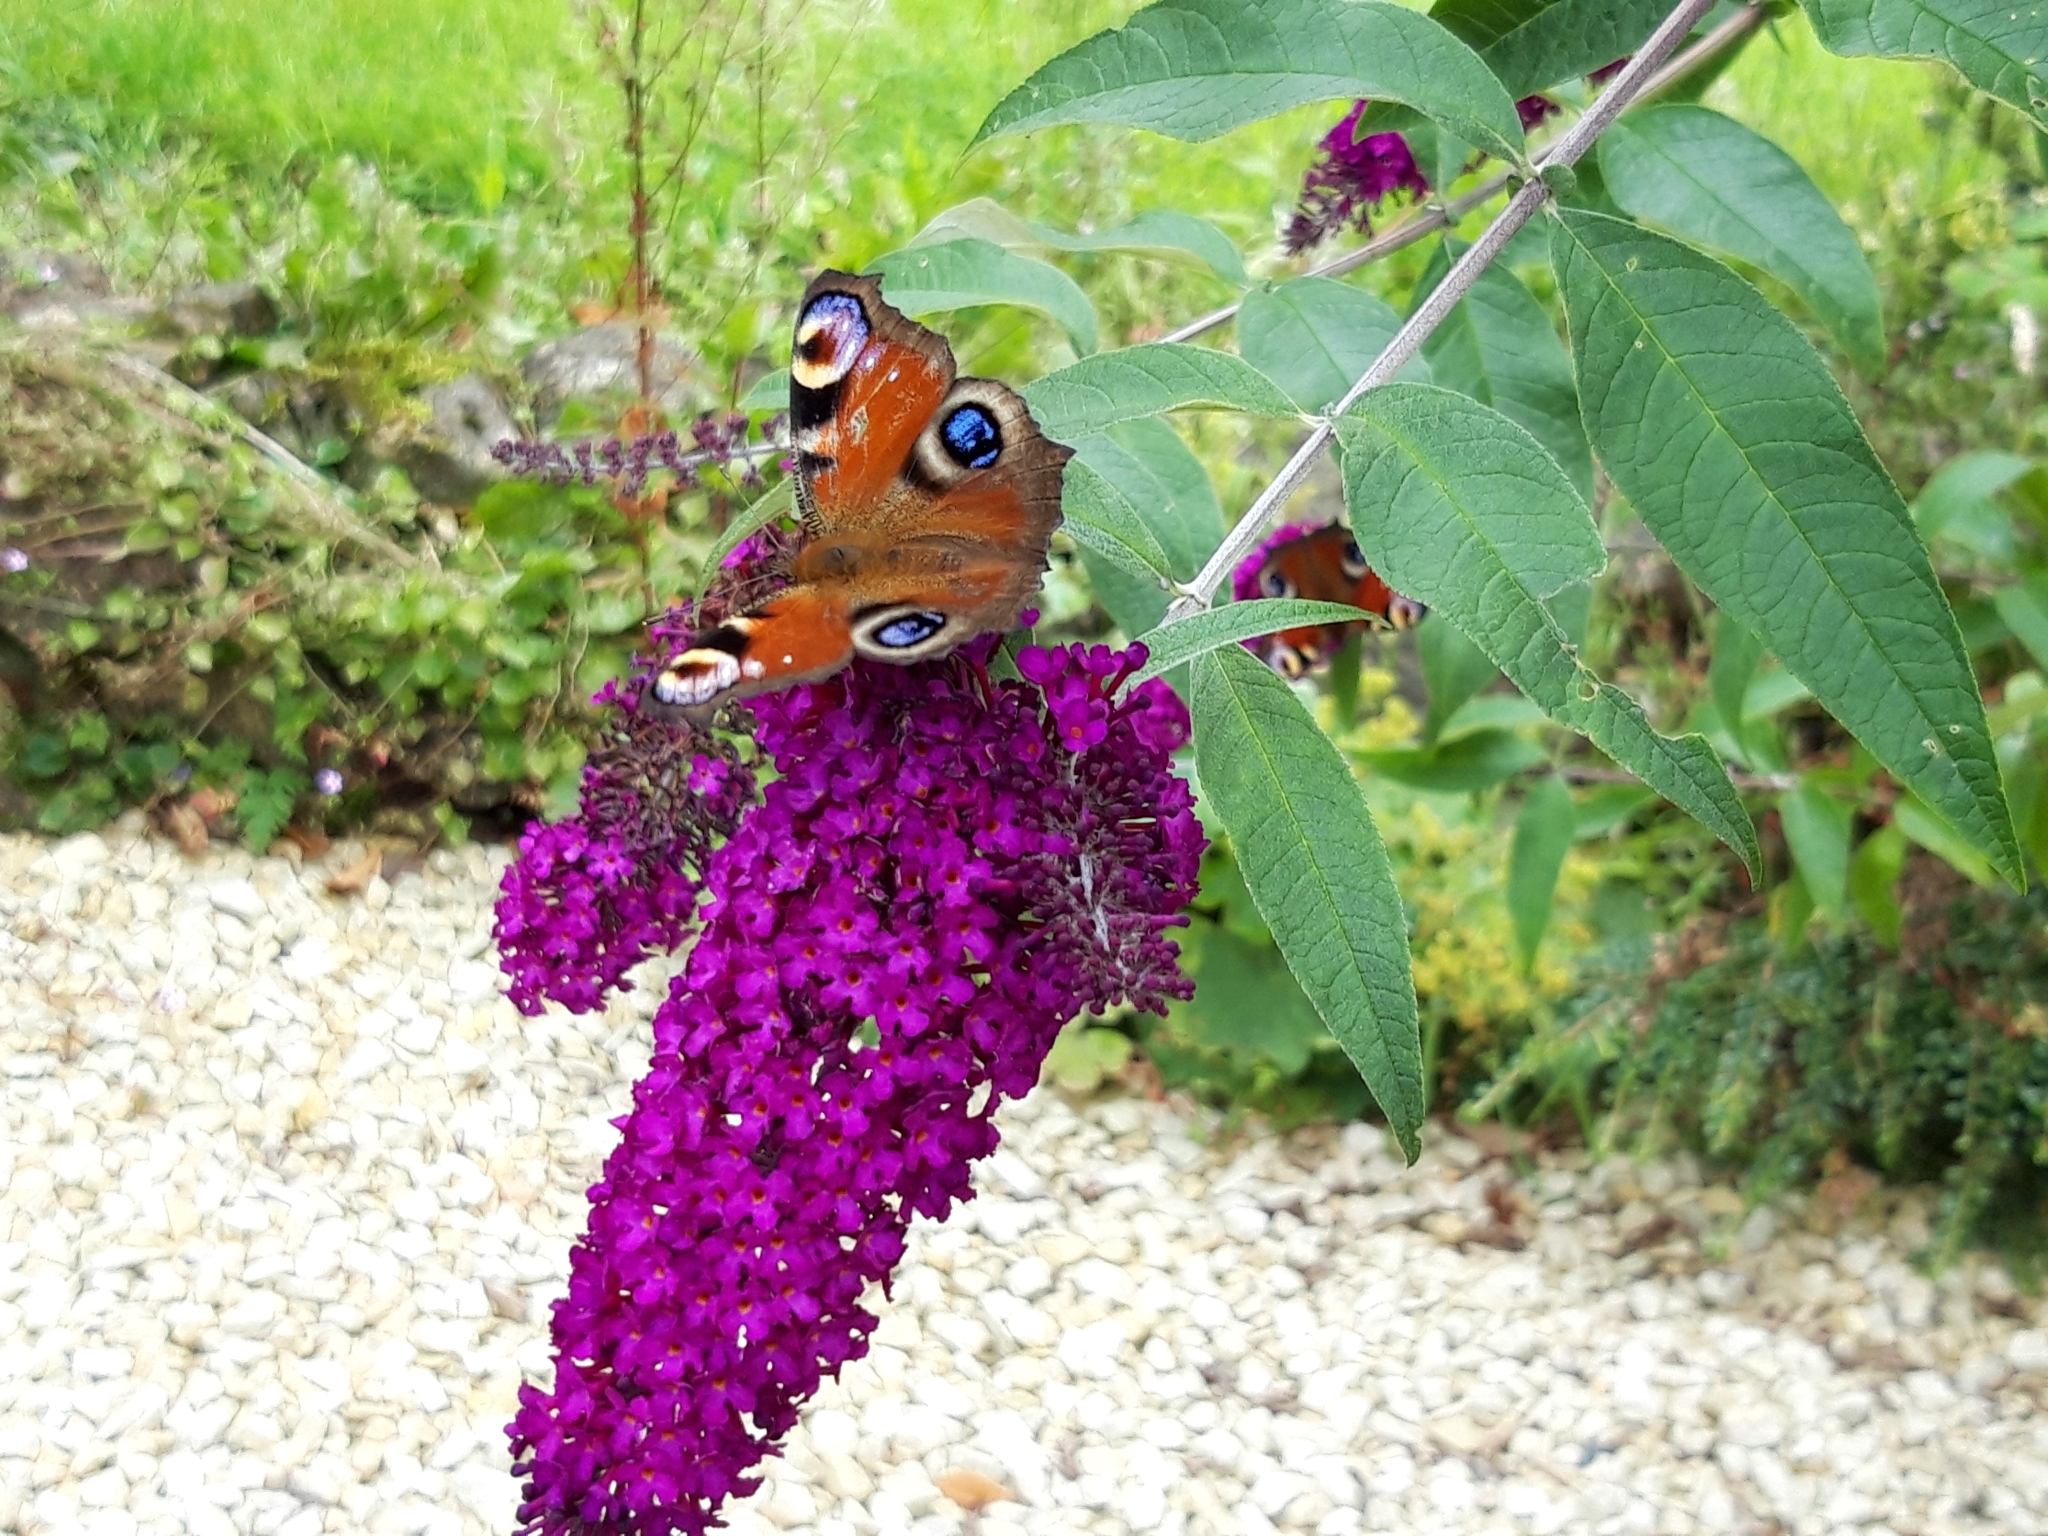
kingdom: Animalia
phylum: Arthropoda
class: Insecta
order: Lepidoptera
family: Nymphalidae
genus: Aglais
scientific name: Aglais io
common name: Peacock
